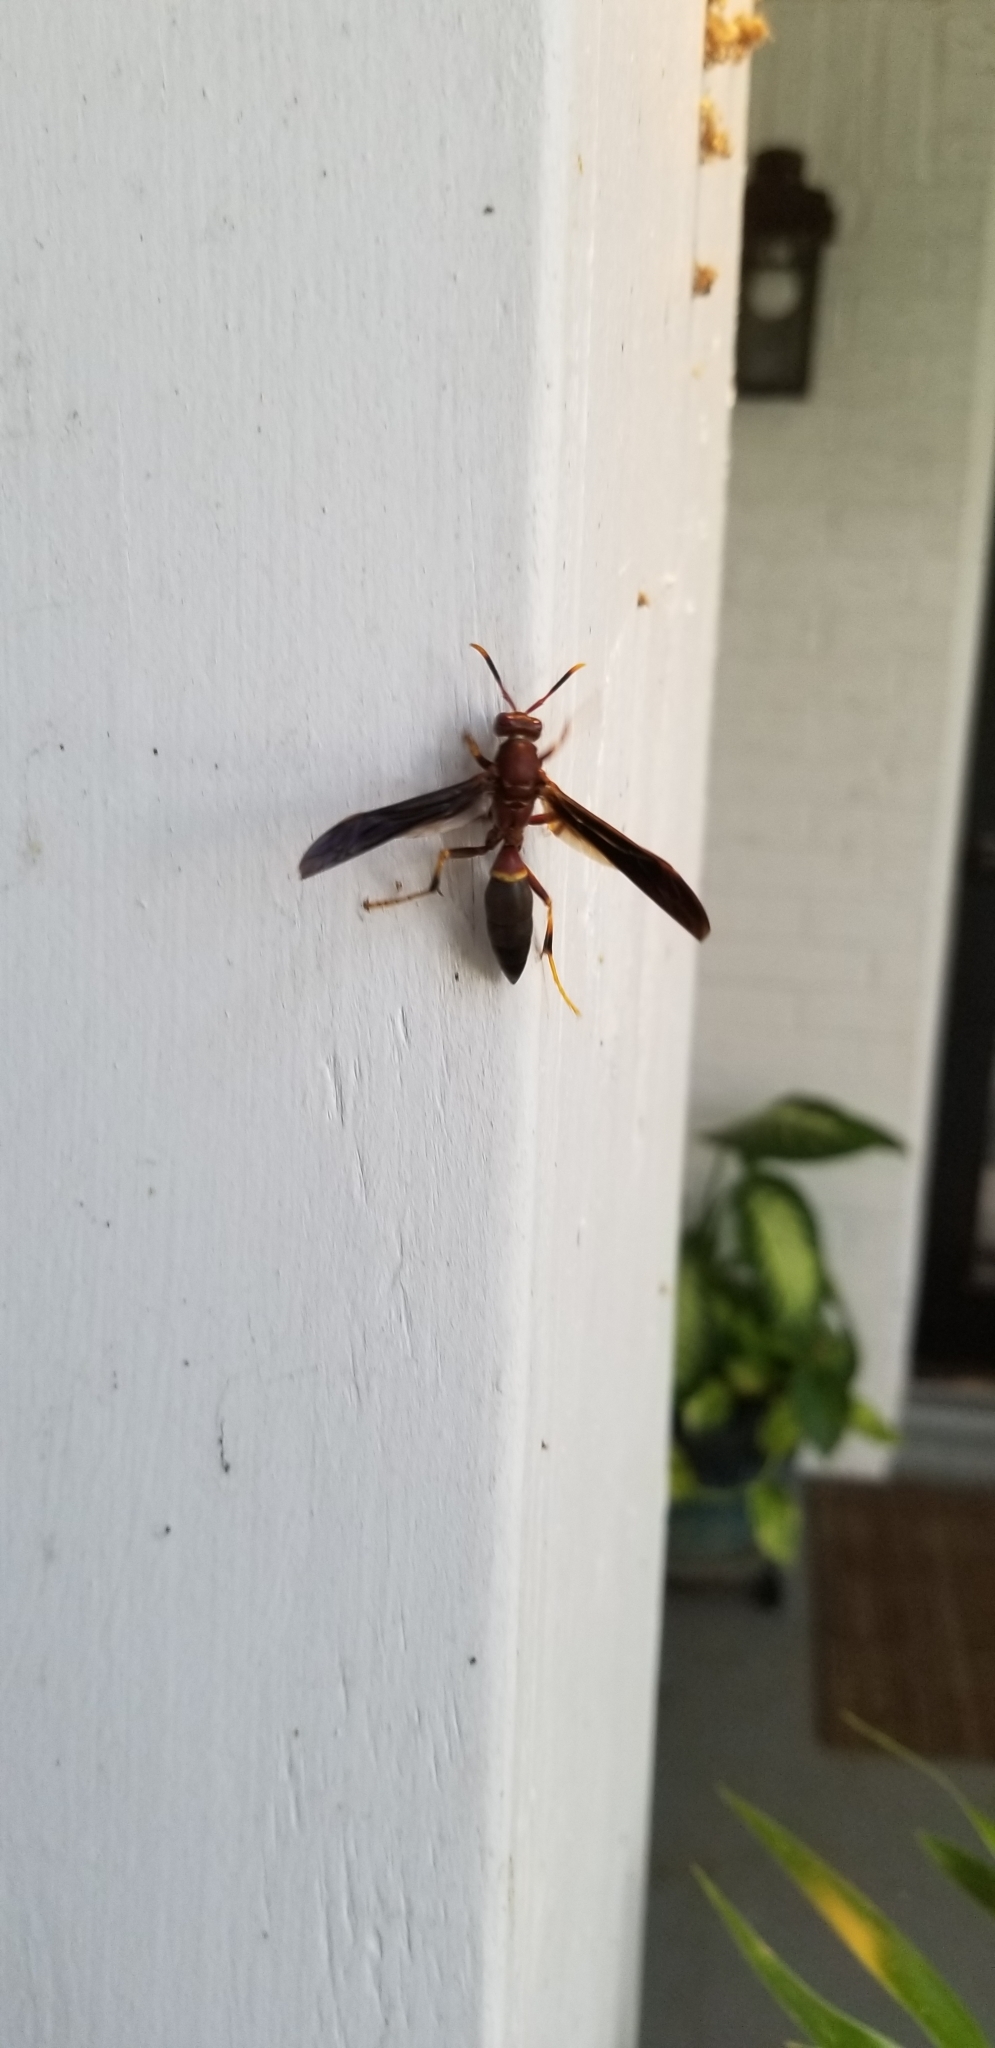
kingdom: Animalia
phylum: Arthropoda
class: Insecta
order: Hymenoptera
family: Eumenidae
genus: Polistes
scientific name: Polistes annularis
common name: Ringed paper wasp
